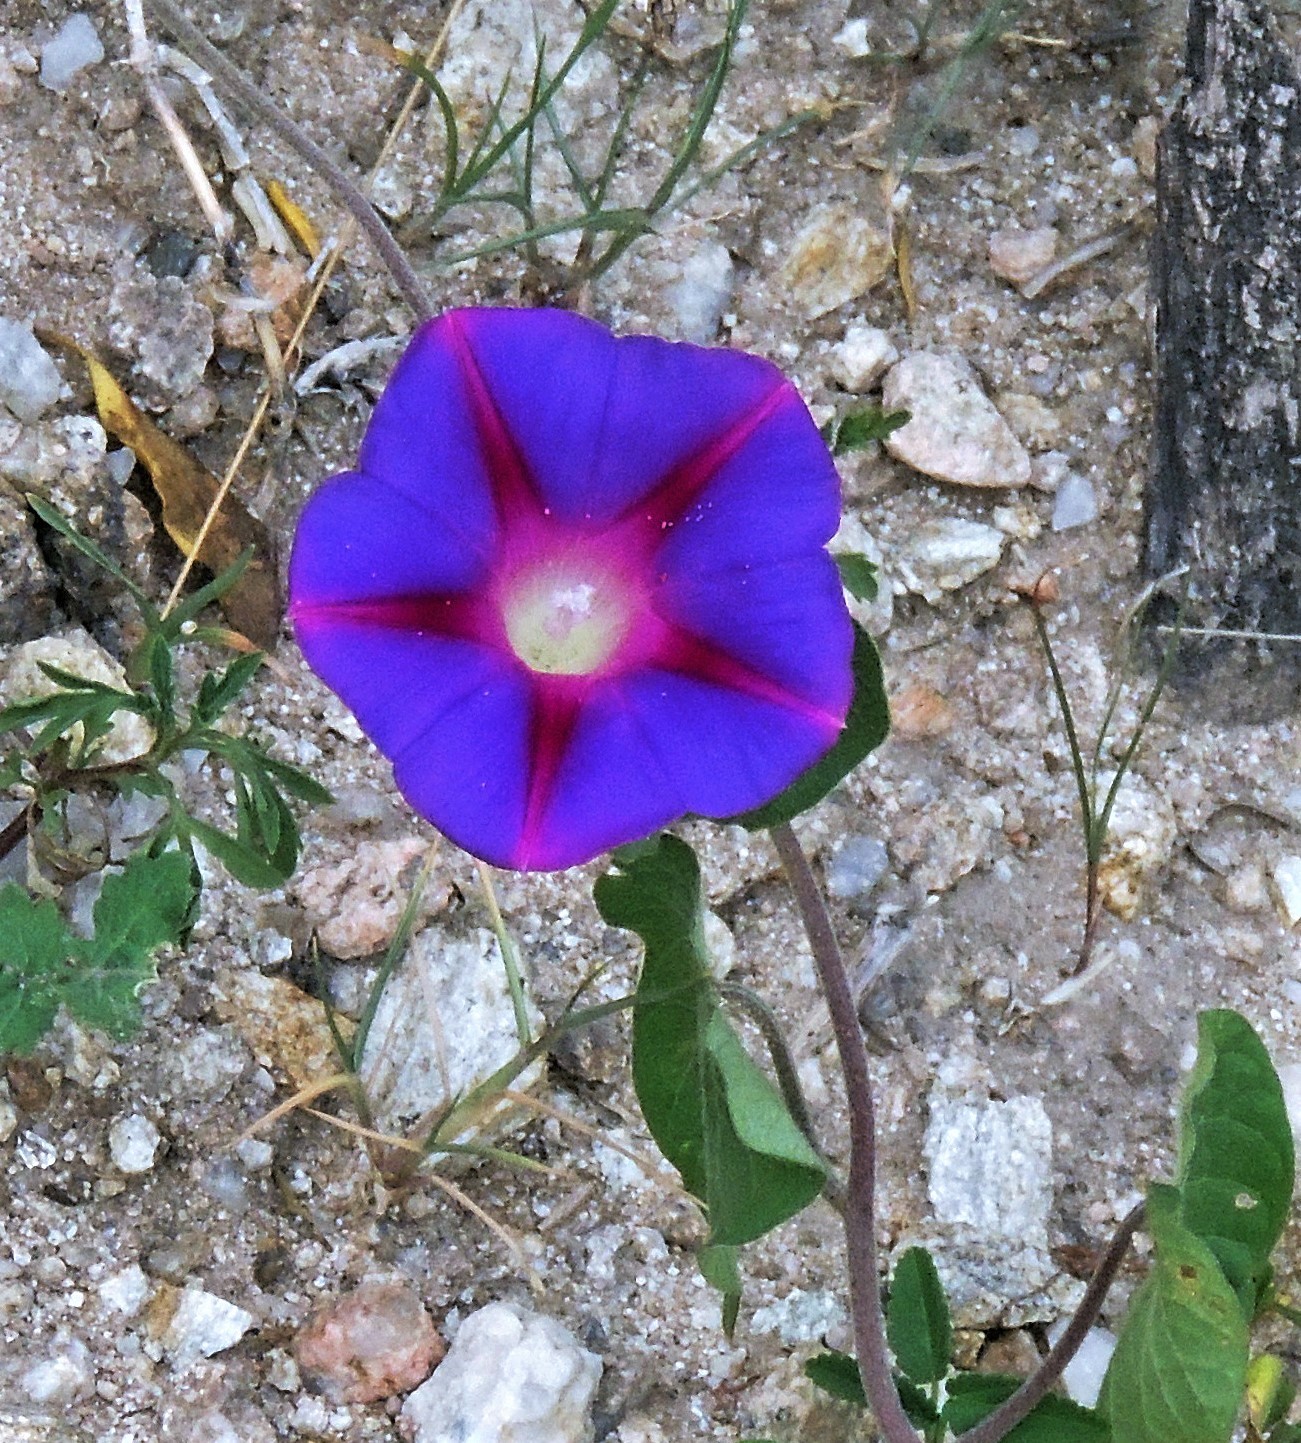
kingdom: Plantae
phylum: Tracheophyta
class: Magnoliopsida
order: Solanales
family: Convolvulaceae
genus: Ipomoea
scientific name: Ipomoea purpurea
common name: Common morning-glory
